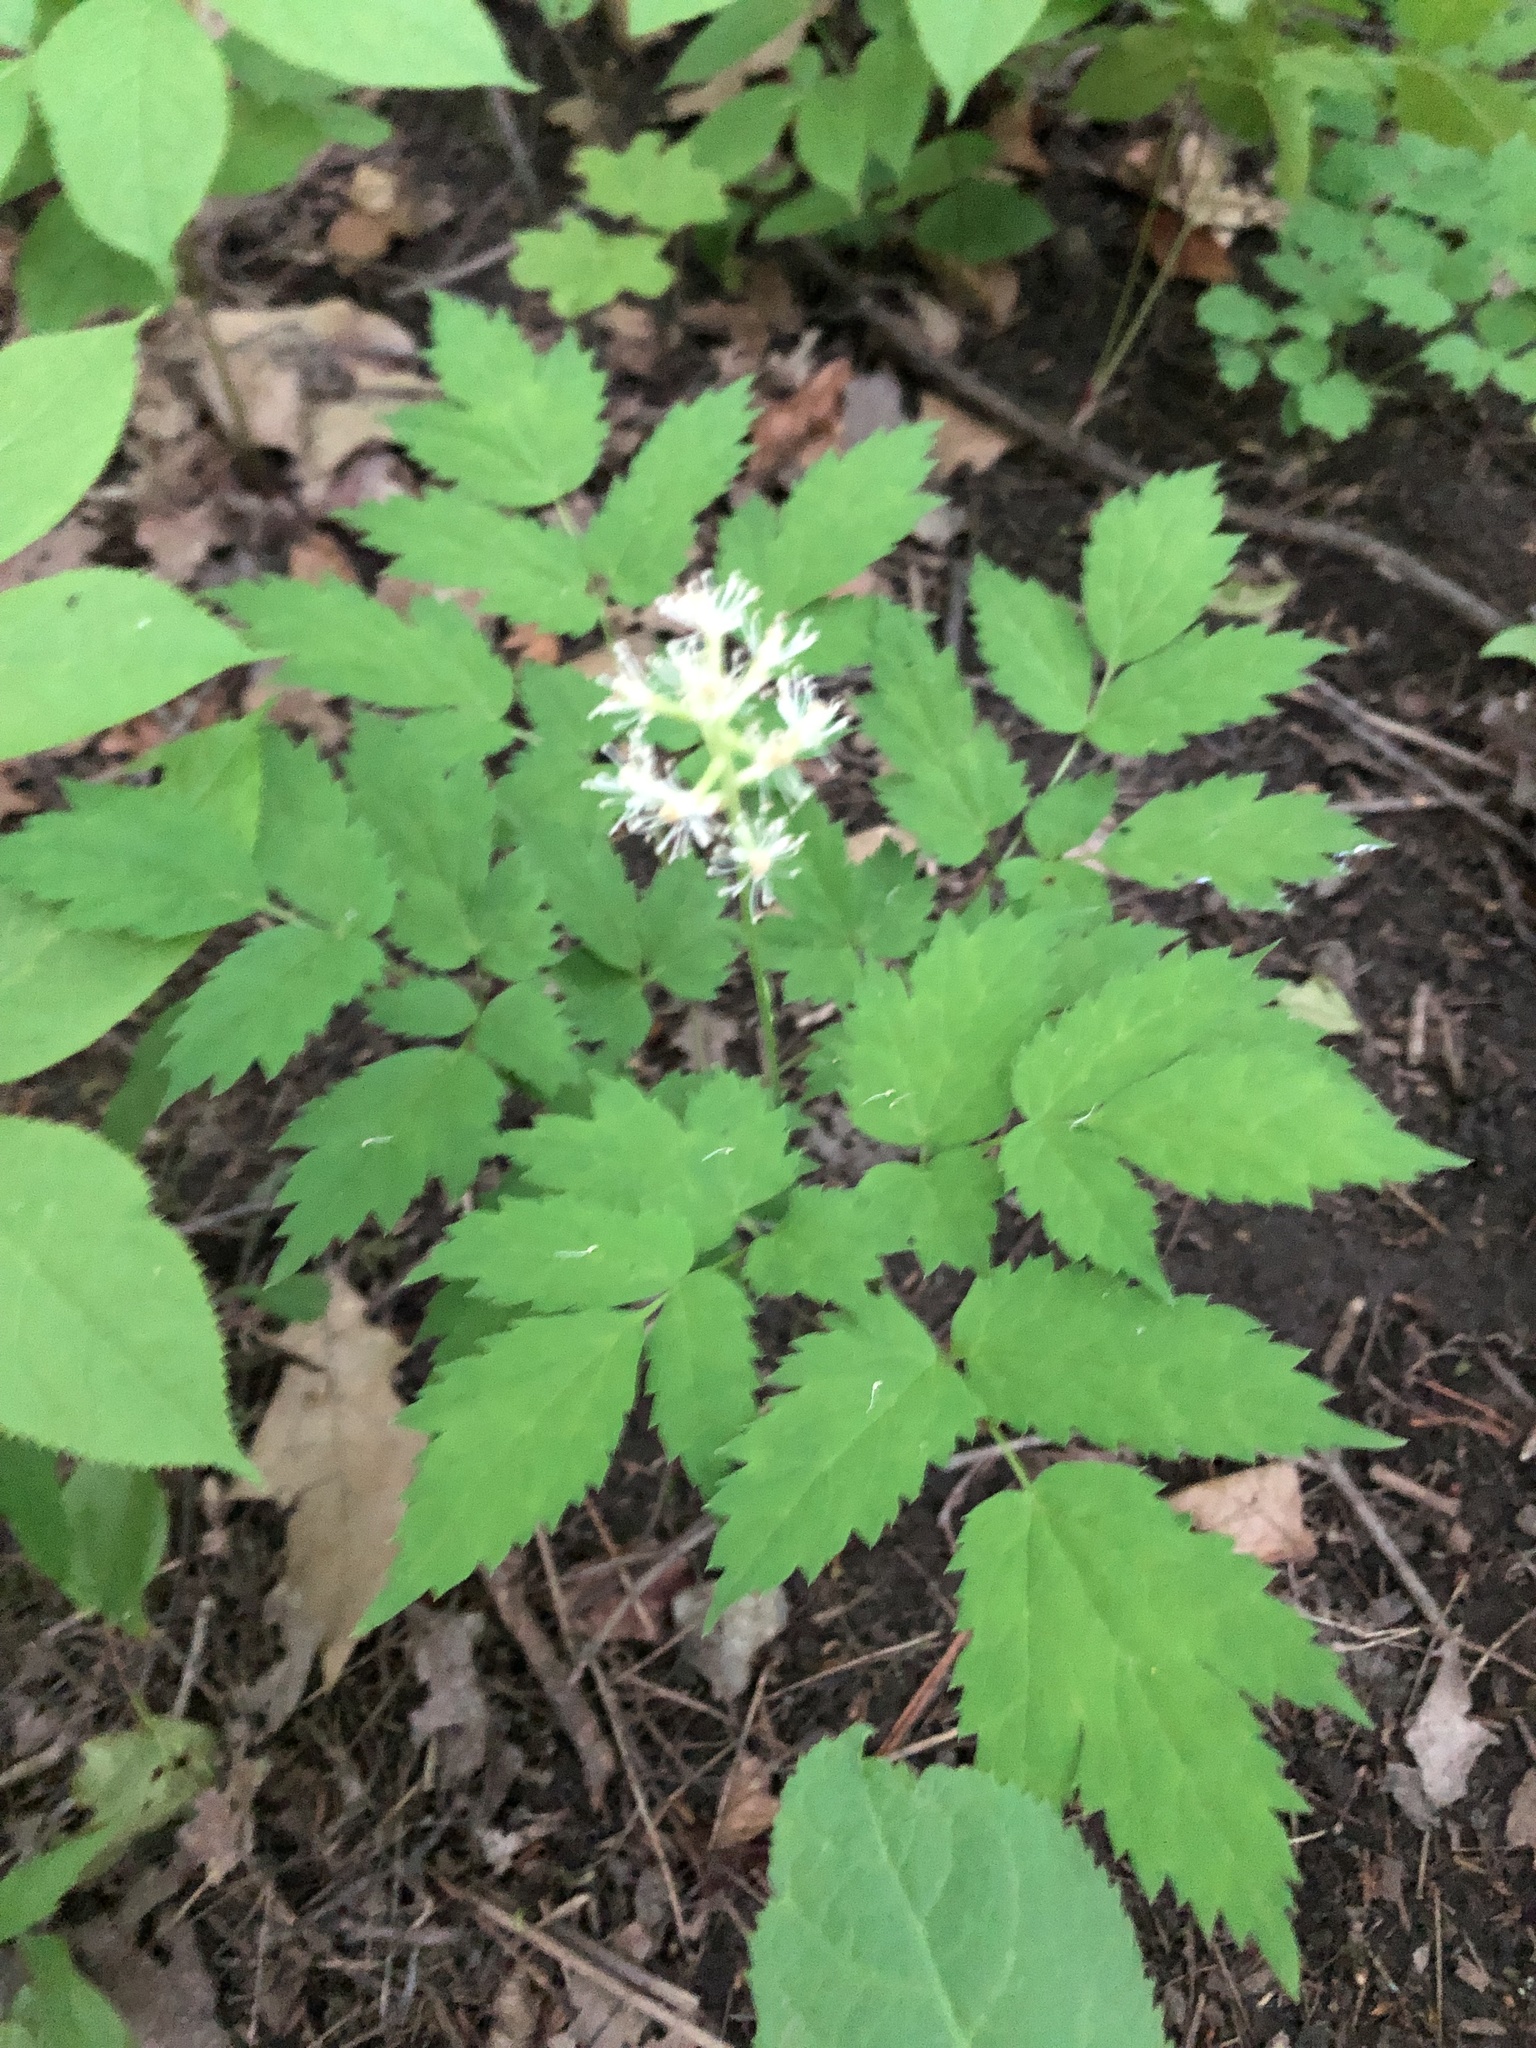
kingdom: Plantae
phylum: Tracheophyta
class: Magnoliopsida
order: Ranunculales
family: Ranunculaceae
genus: Actaea
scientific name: Actaea pachypoda
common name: Doll's-eyes
